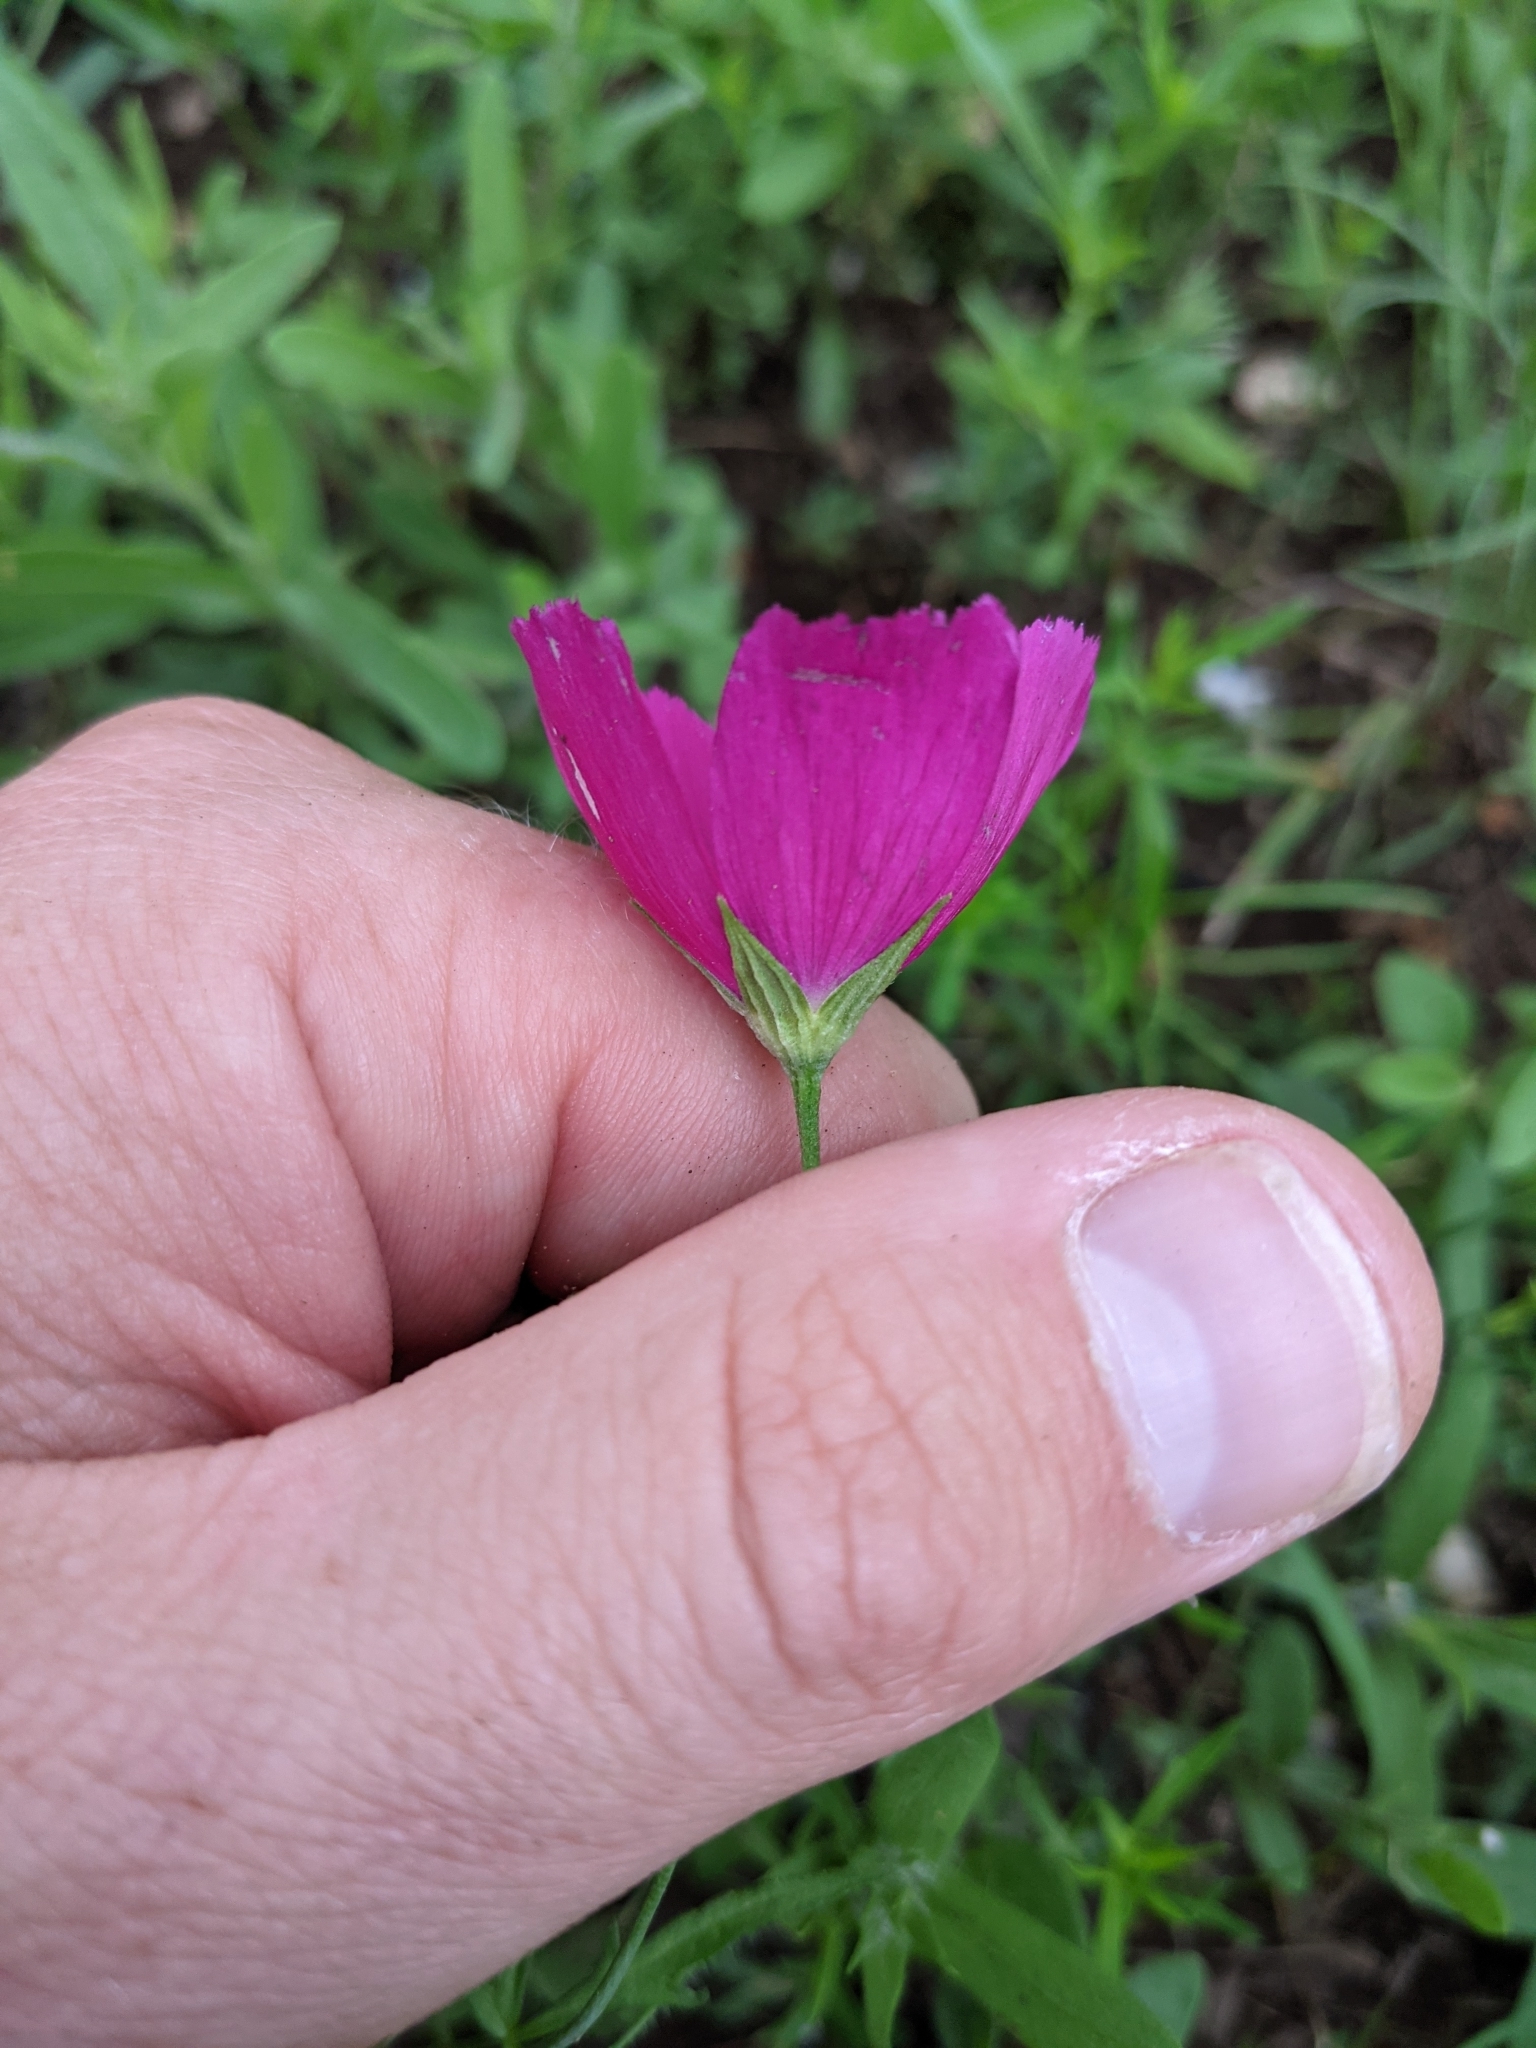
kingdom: Plantae
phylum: Tracheophyta
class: Magnoliopsida
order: Malvales
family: Malvaceae
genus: Callirhoe
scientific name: Callirhoe leiocarpa
